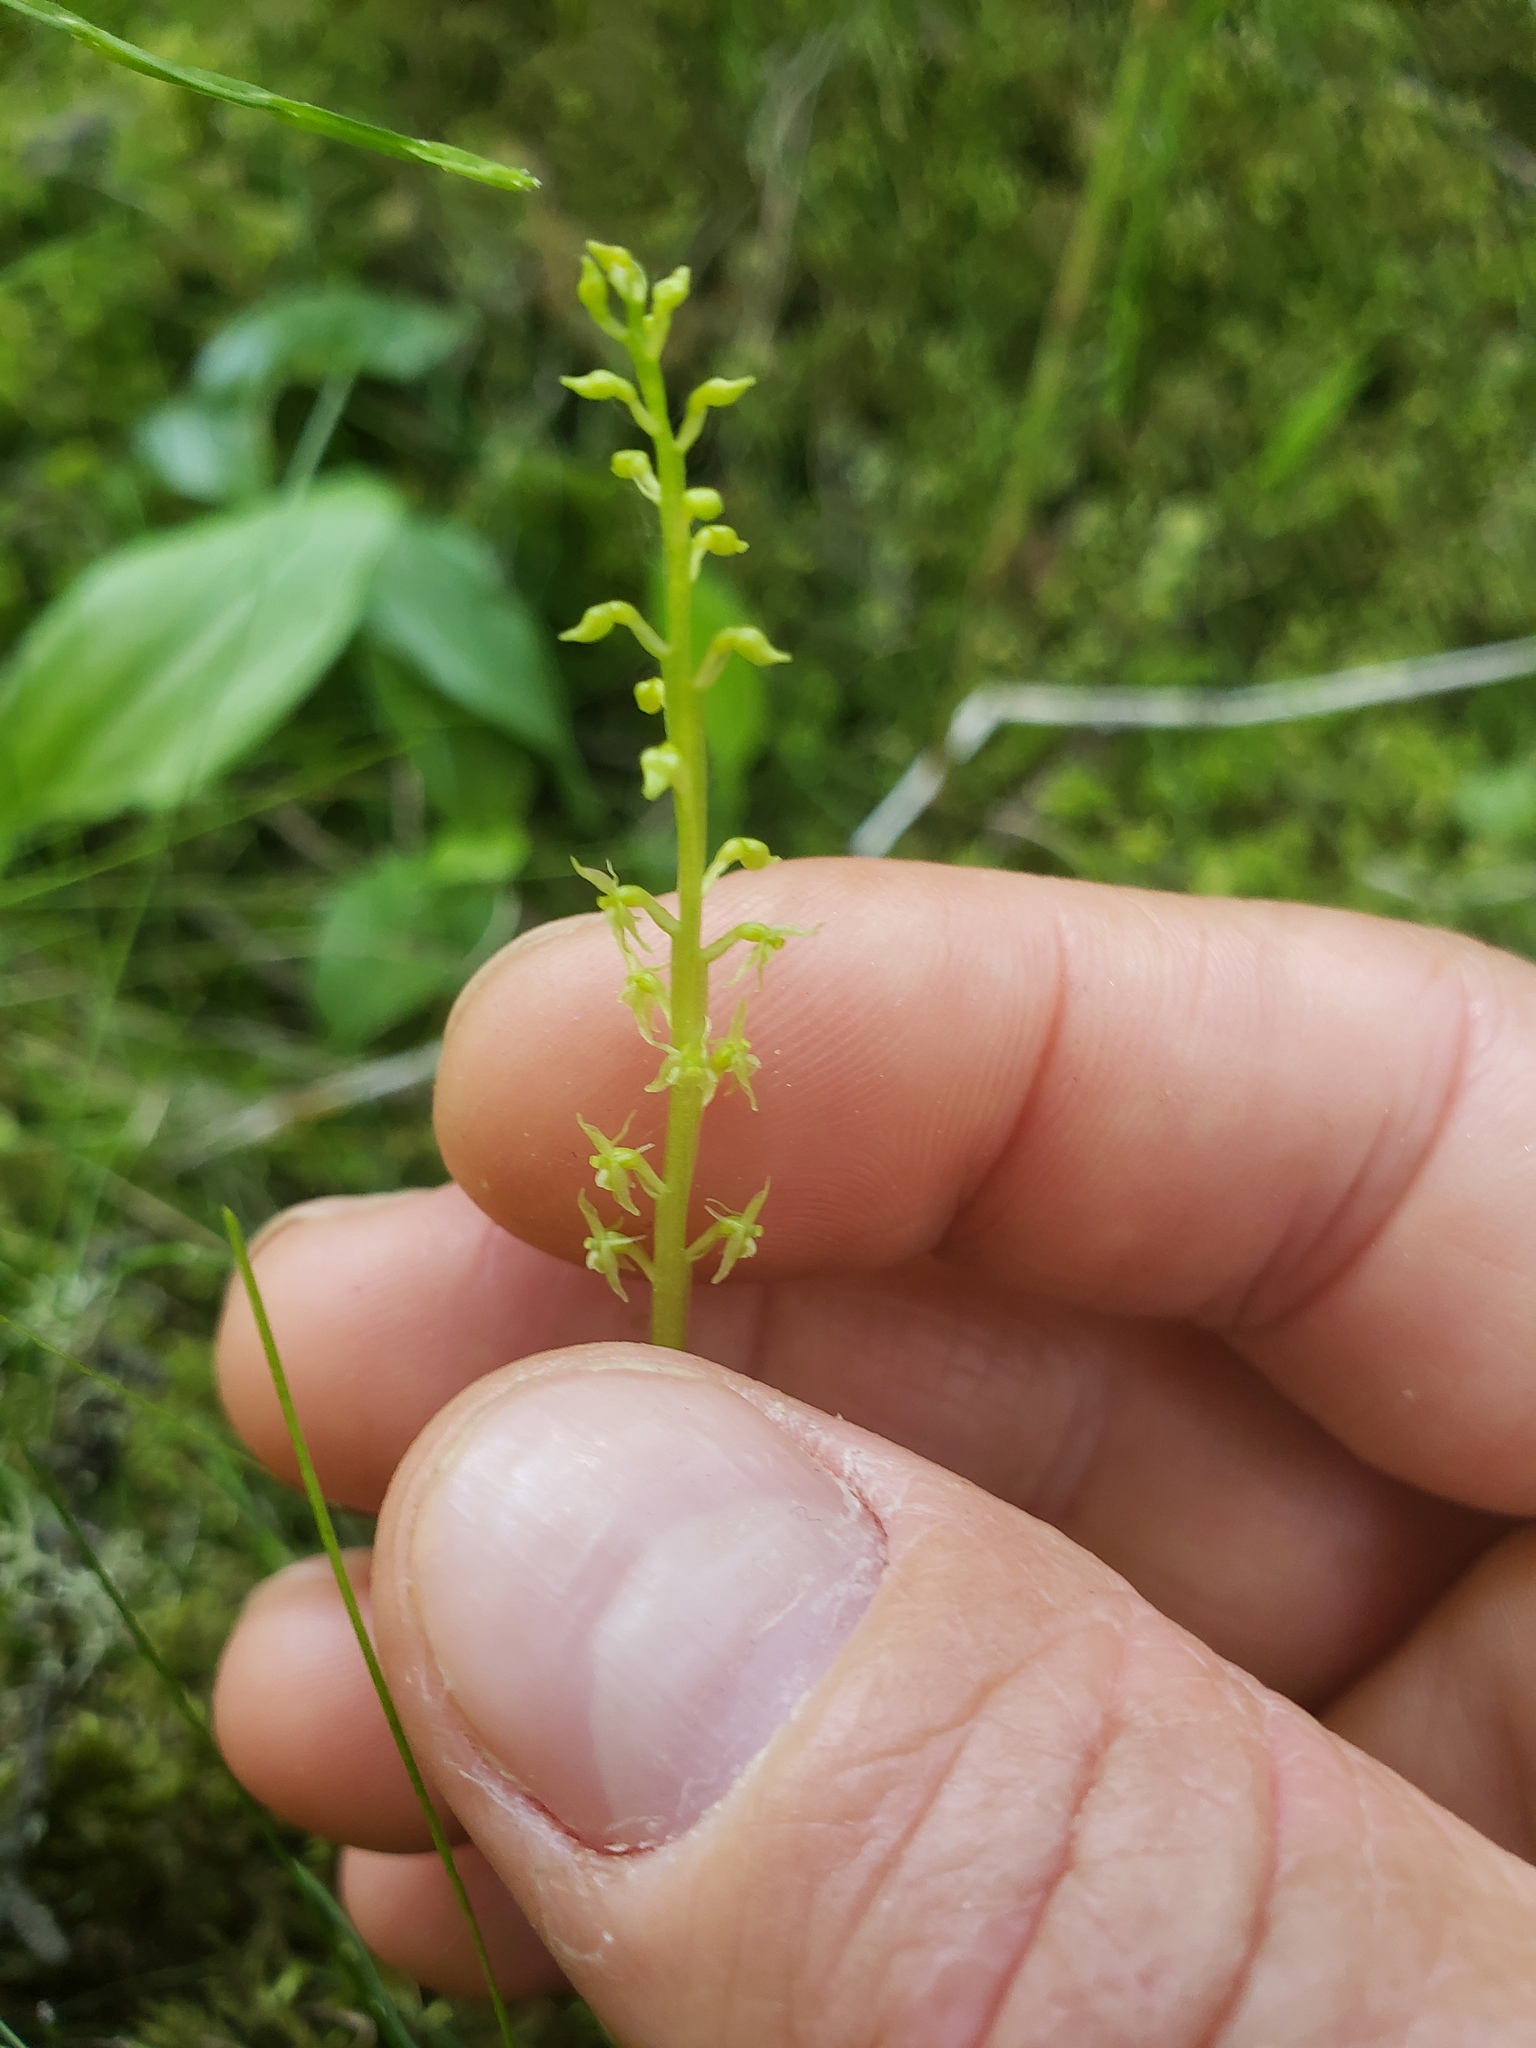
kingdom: Plantae
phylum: Tracheophyta
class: Liliopsida
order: Asparagales
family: Orchidaceae
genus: Malaxis
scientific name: Malaxis monophyllos
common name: White adder's-mouth
